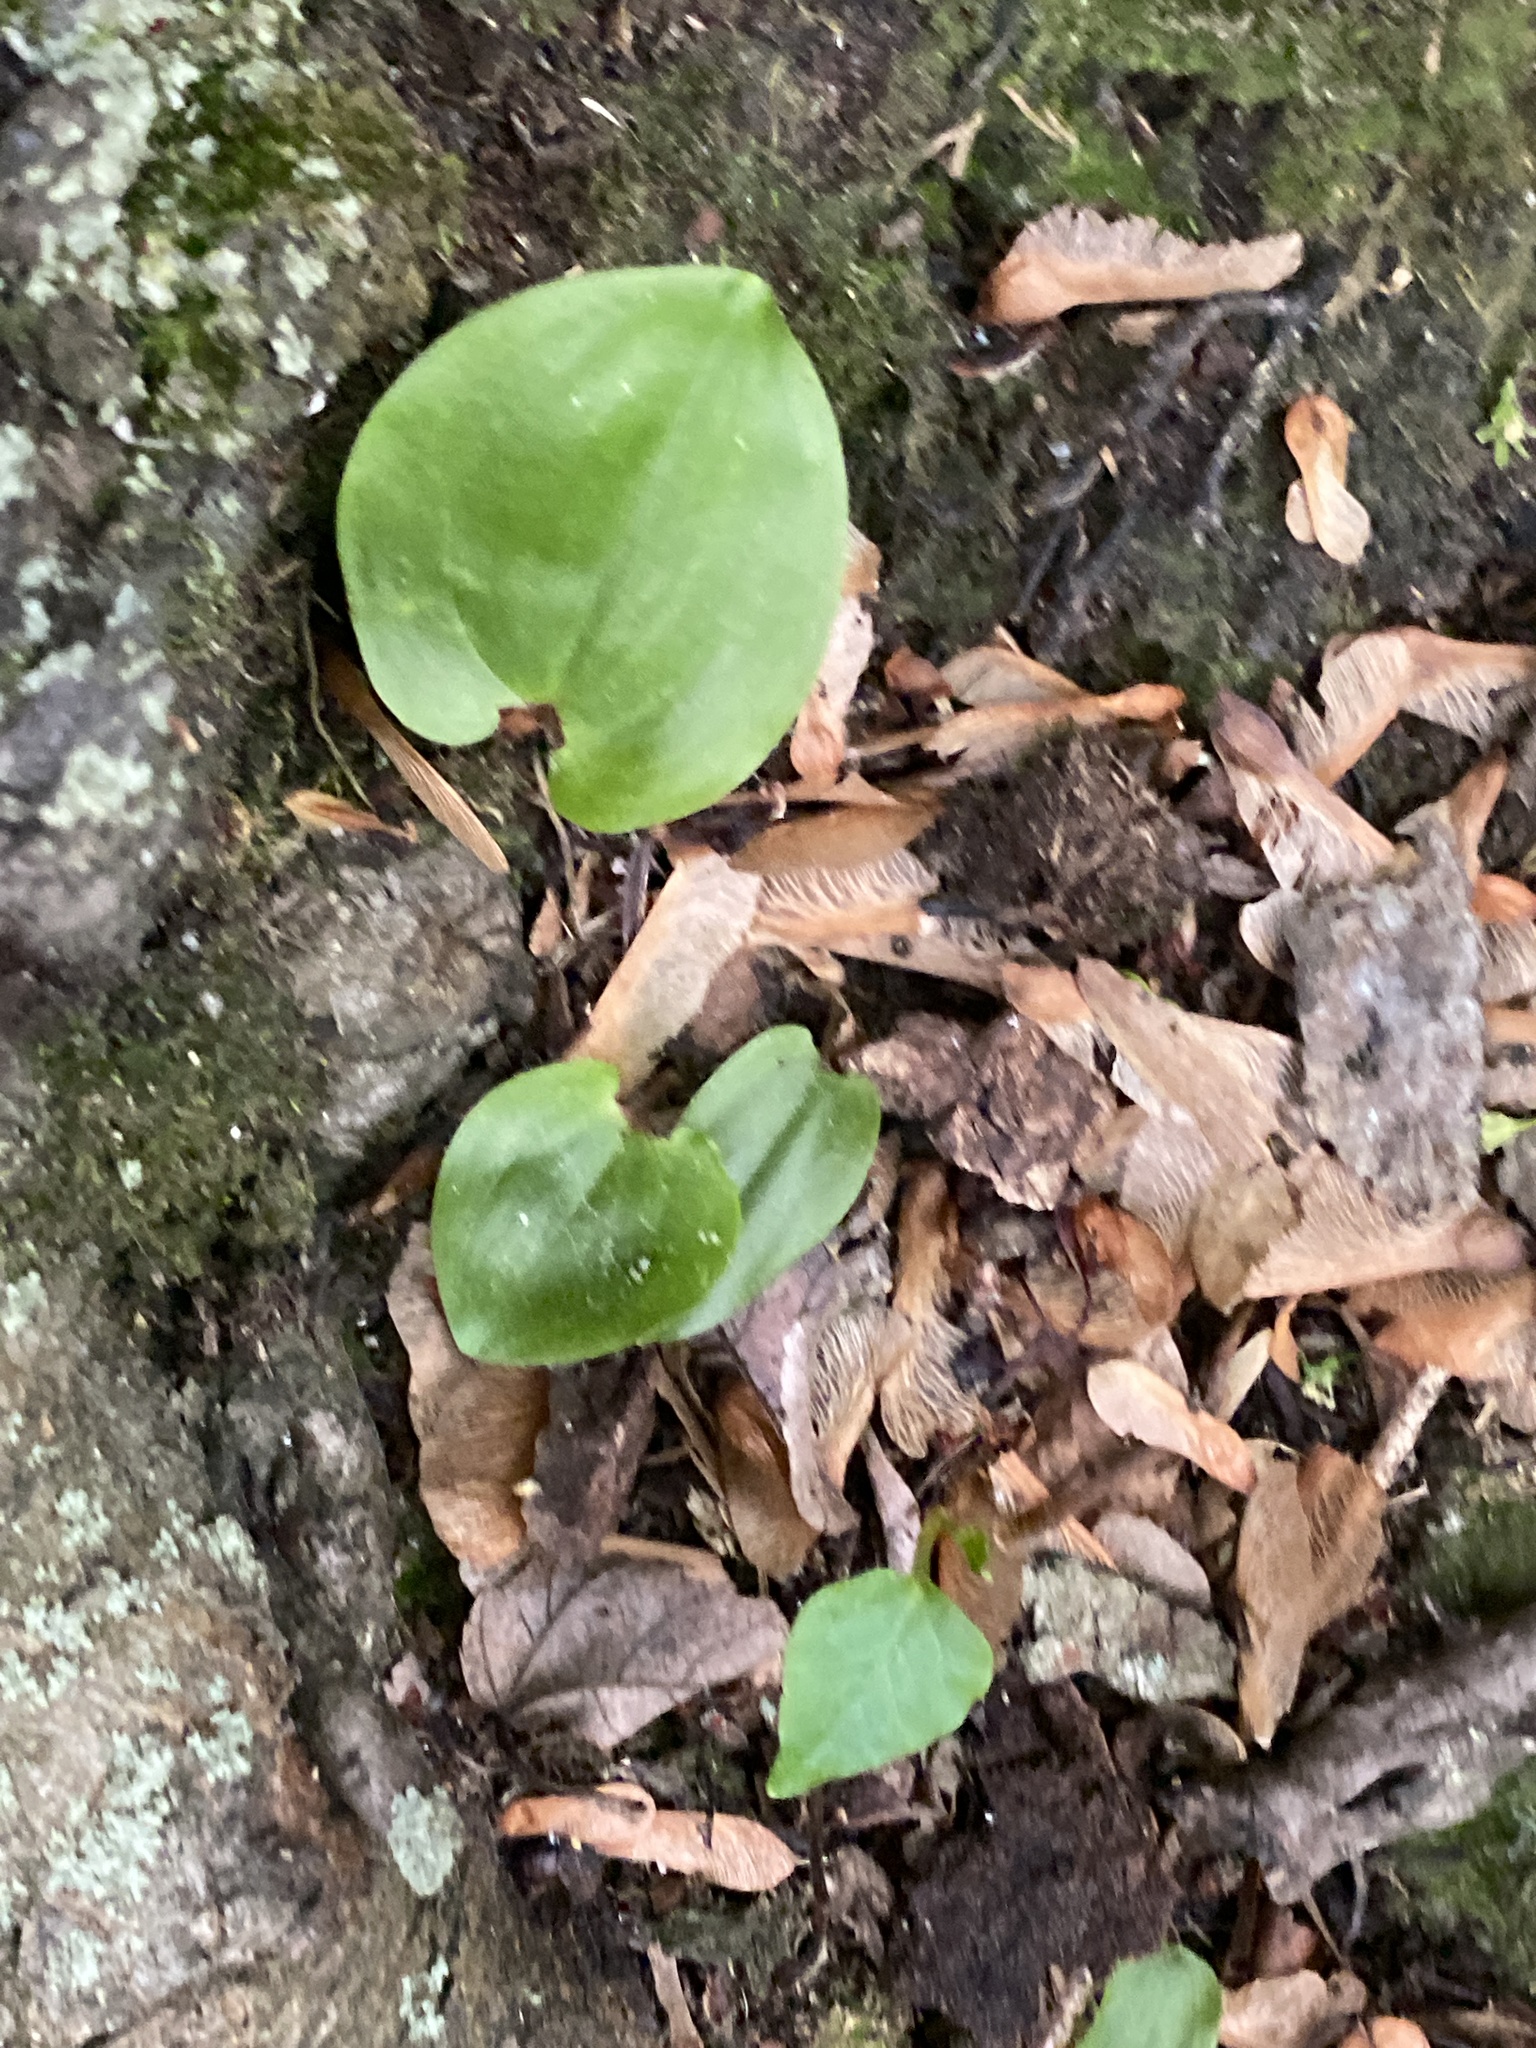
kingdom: Plantae
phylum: Tracheophyta
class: Liliopsida
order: Asparagales
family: Asparagaceae
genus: Maianthemum
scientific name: Maianthemum canadense
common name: False lily-of-the-valley
